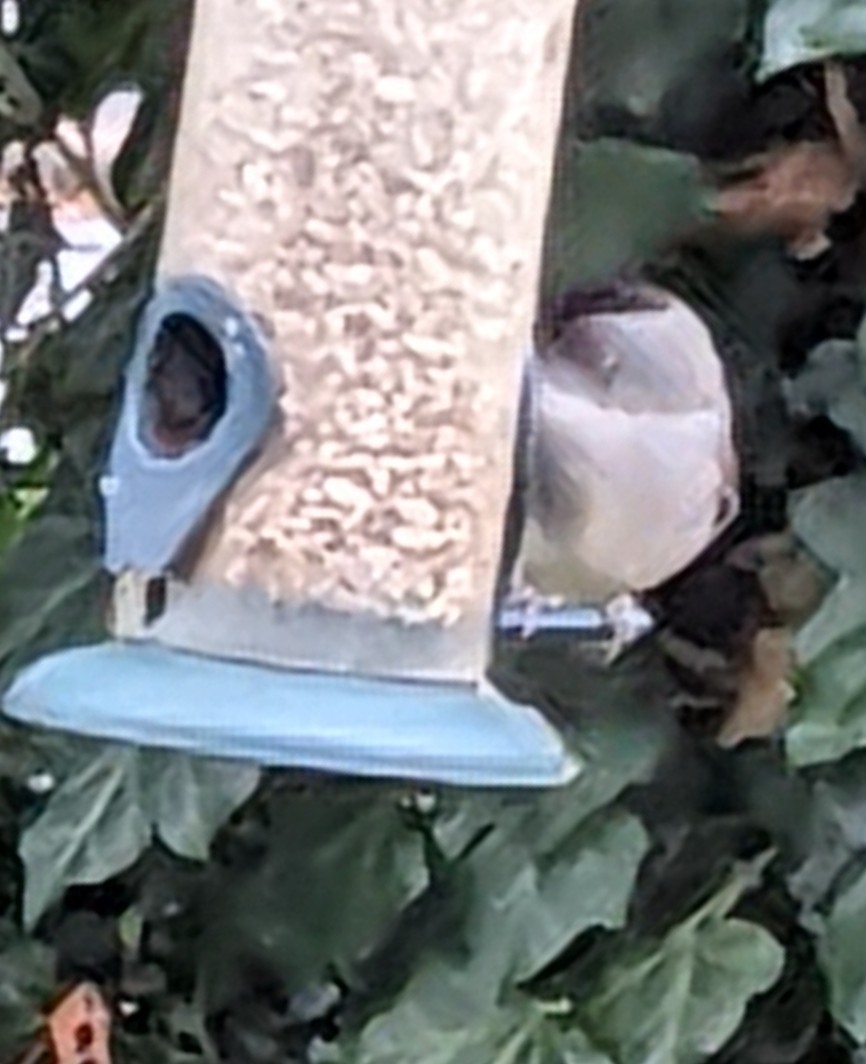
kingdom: Animalia
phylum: Chordata
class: Aves
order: Passeriformes
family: Sylviidae
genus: Sylvia
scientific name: Sylvia atricapilla
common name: Eurasian blackcap
